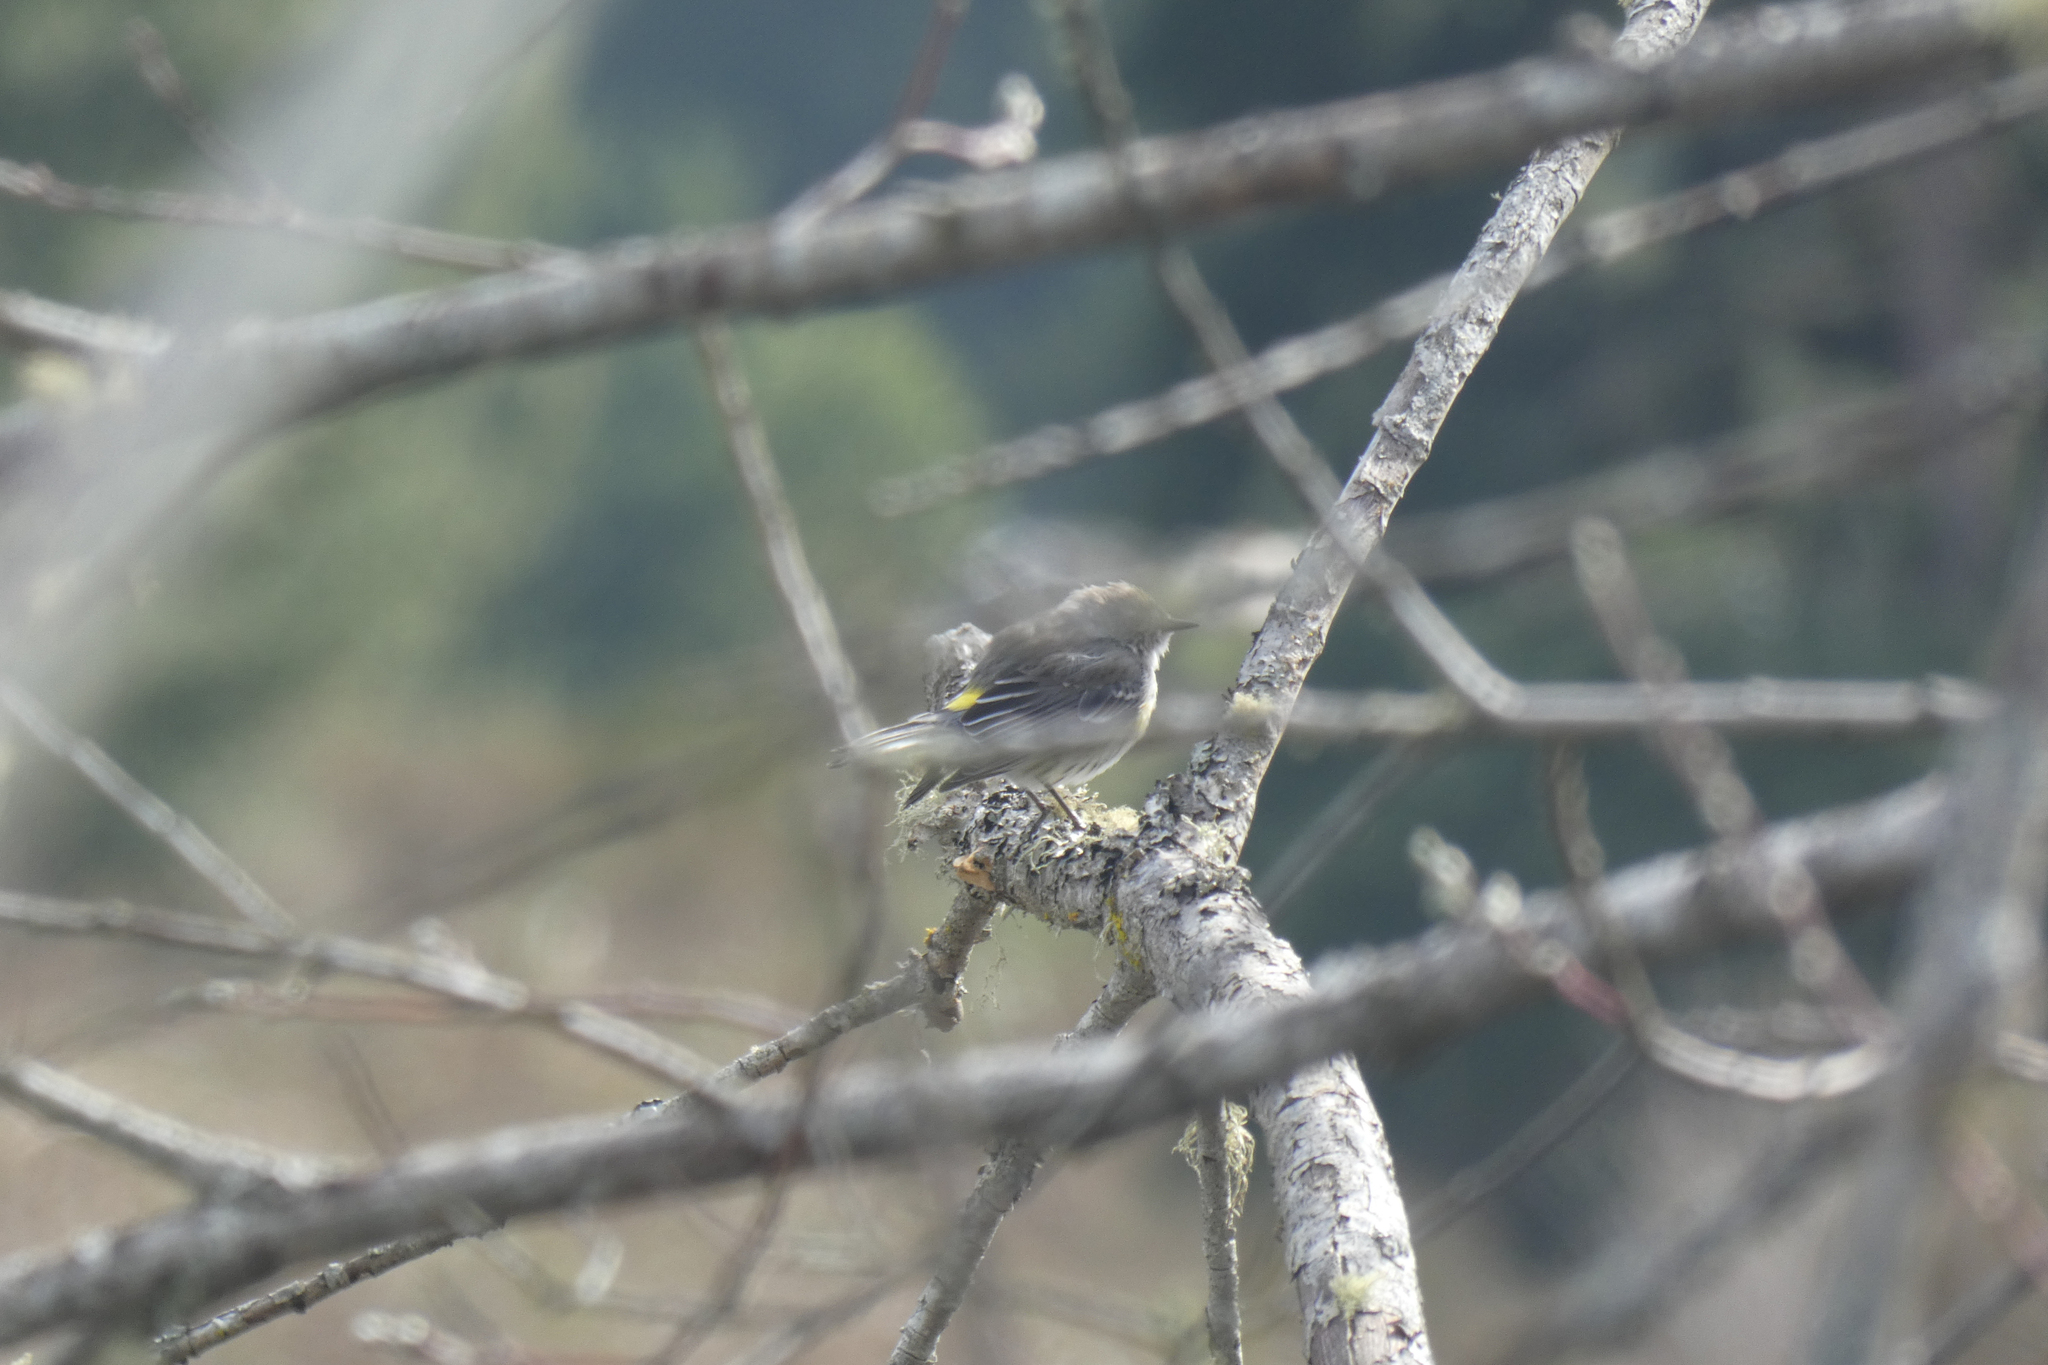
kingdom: Animalia
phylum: Chordata
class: Aves
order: Passeriformes
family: Parulidae
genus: Setophaga
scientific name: Setophaga coronata
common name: Myrtle warbler
